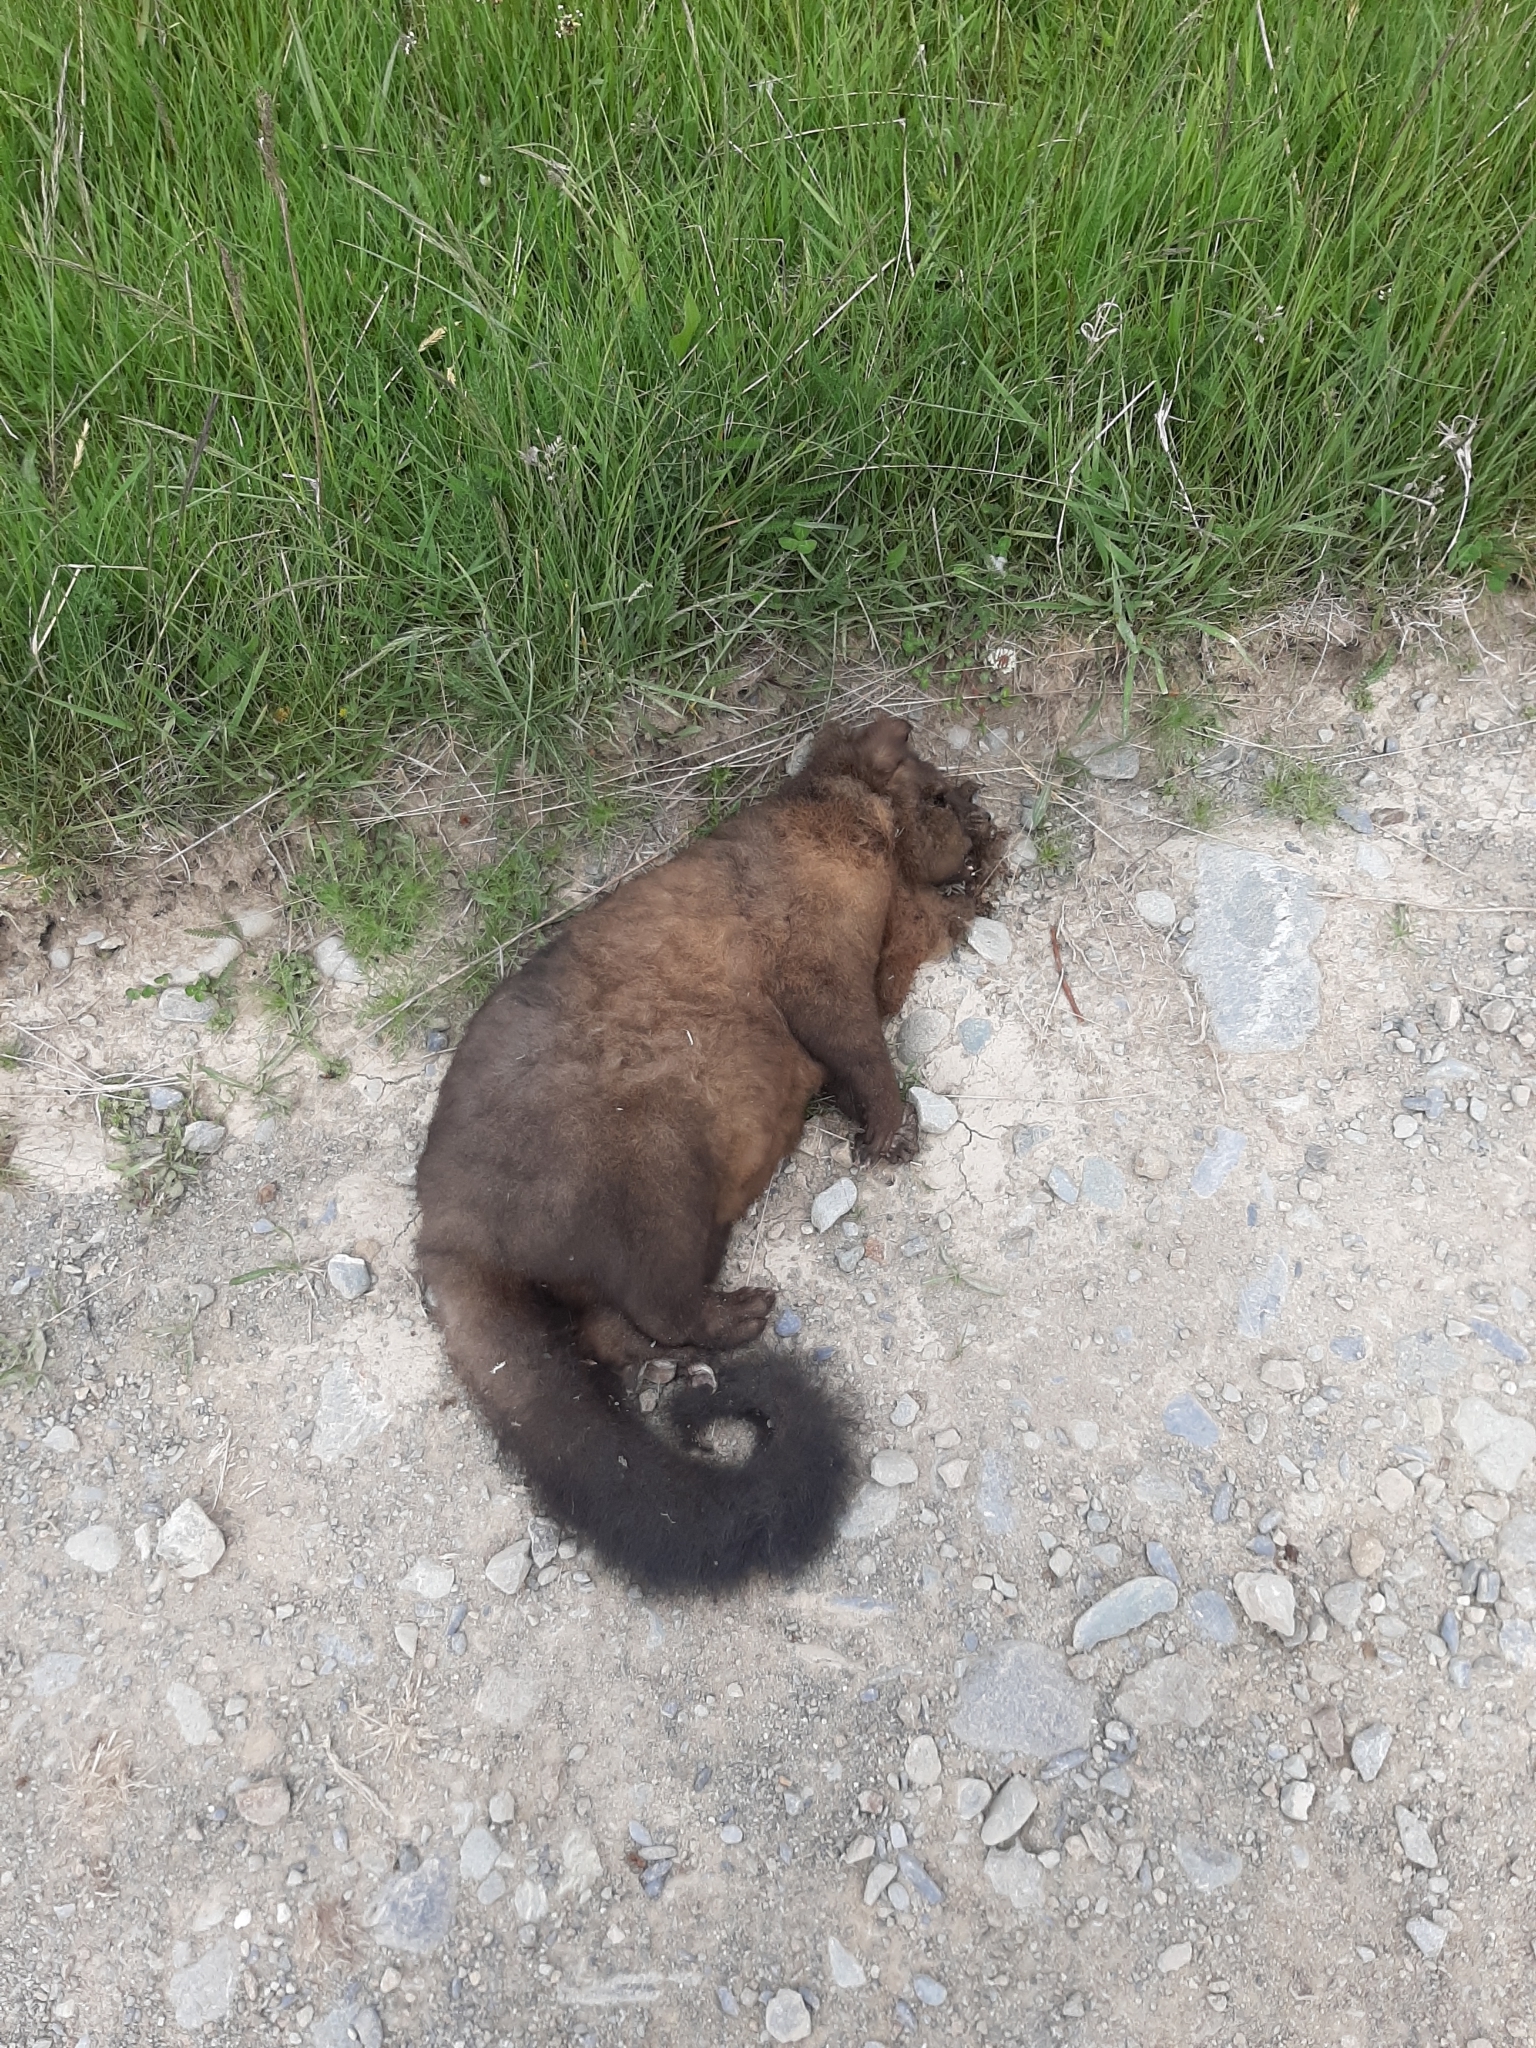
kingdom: Animalia
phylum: Chordata
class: Mammalia
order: Diprotodontia
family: Phalangeridae
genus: Trichosurus
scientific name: Trichosurus vulpecula
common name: Common brushtail
